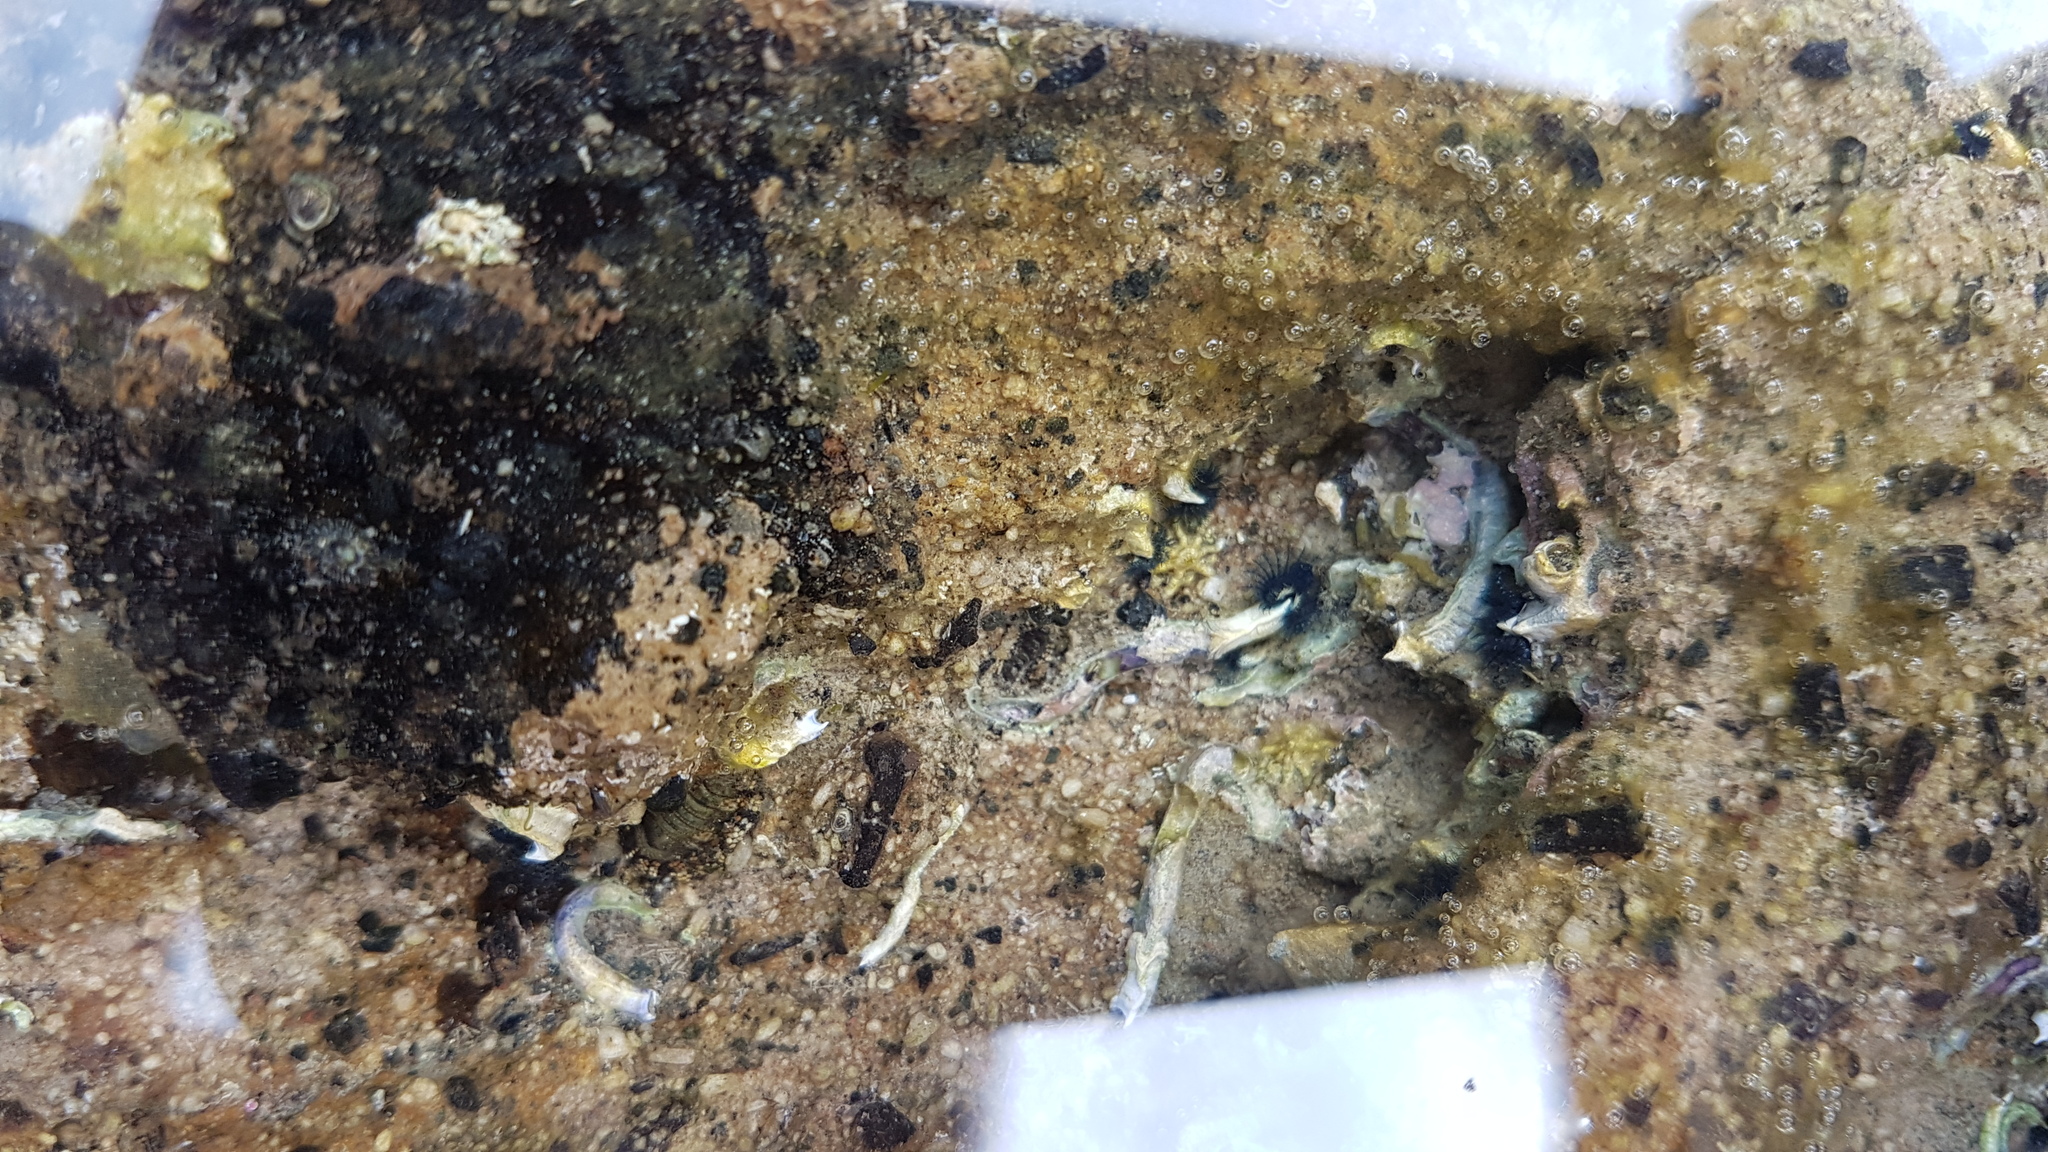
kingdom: Animalia
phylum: Annelida
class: Polychaeta
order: Sabellida
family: Serpulidae
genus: Spirobranchus
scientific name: Spirobranchus cariniferus
